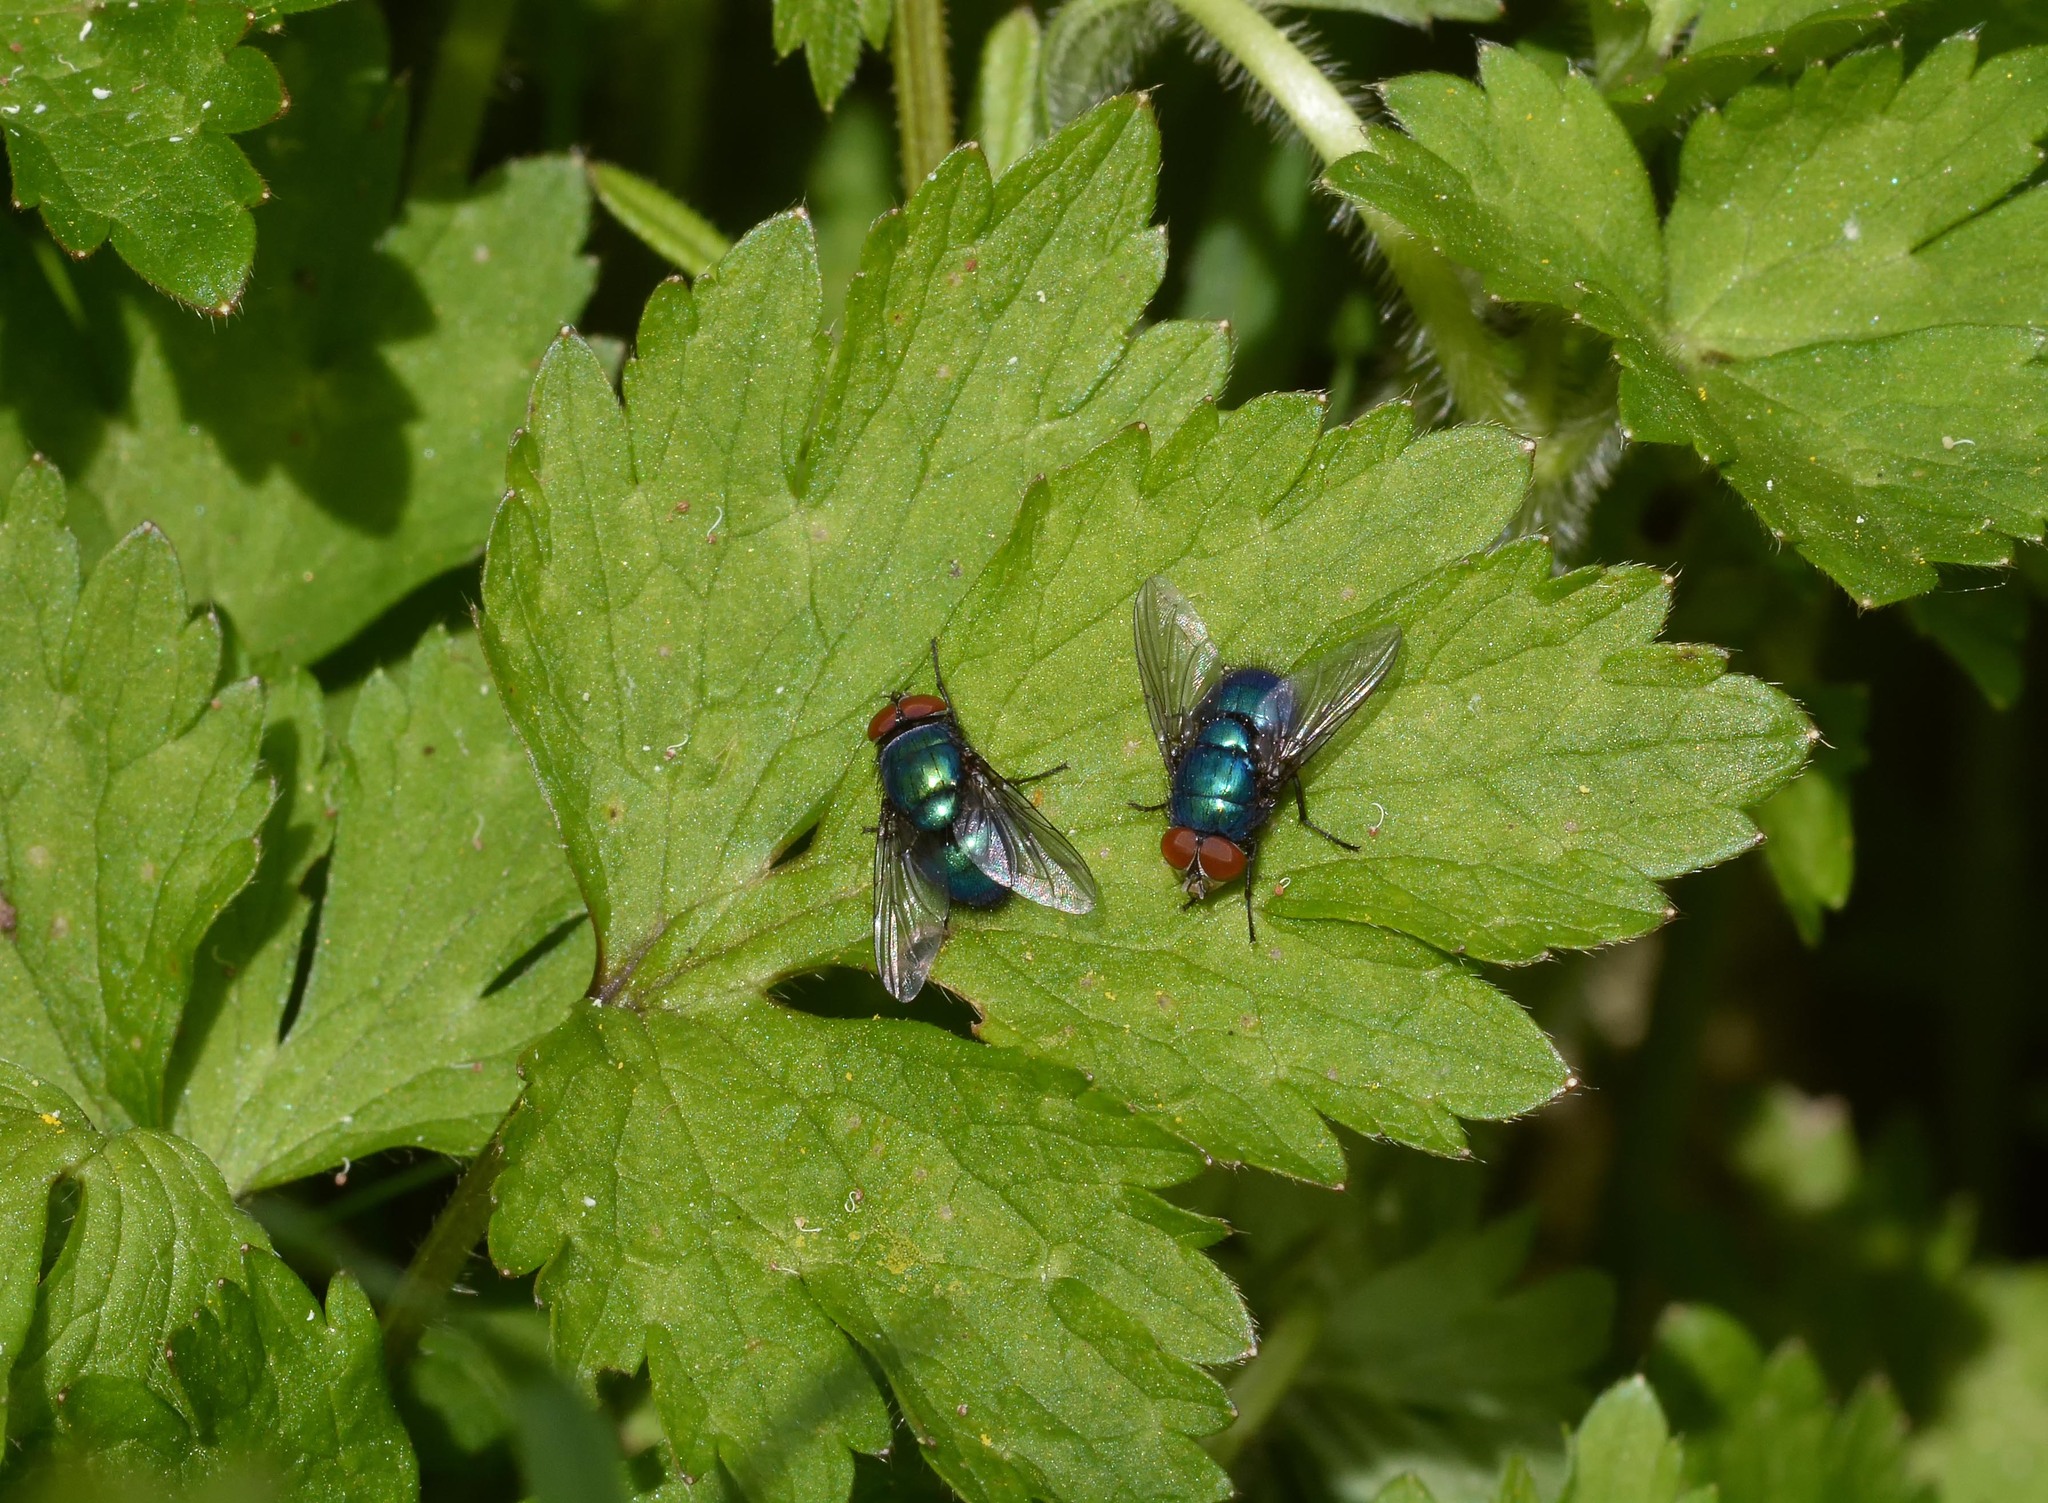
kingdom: Animalia
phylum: Arthropoda
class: Insecta
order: Diptera
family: Calliphoridae
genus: Lucilia
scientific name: Lucilia caesar
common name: Blow fly
